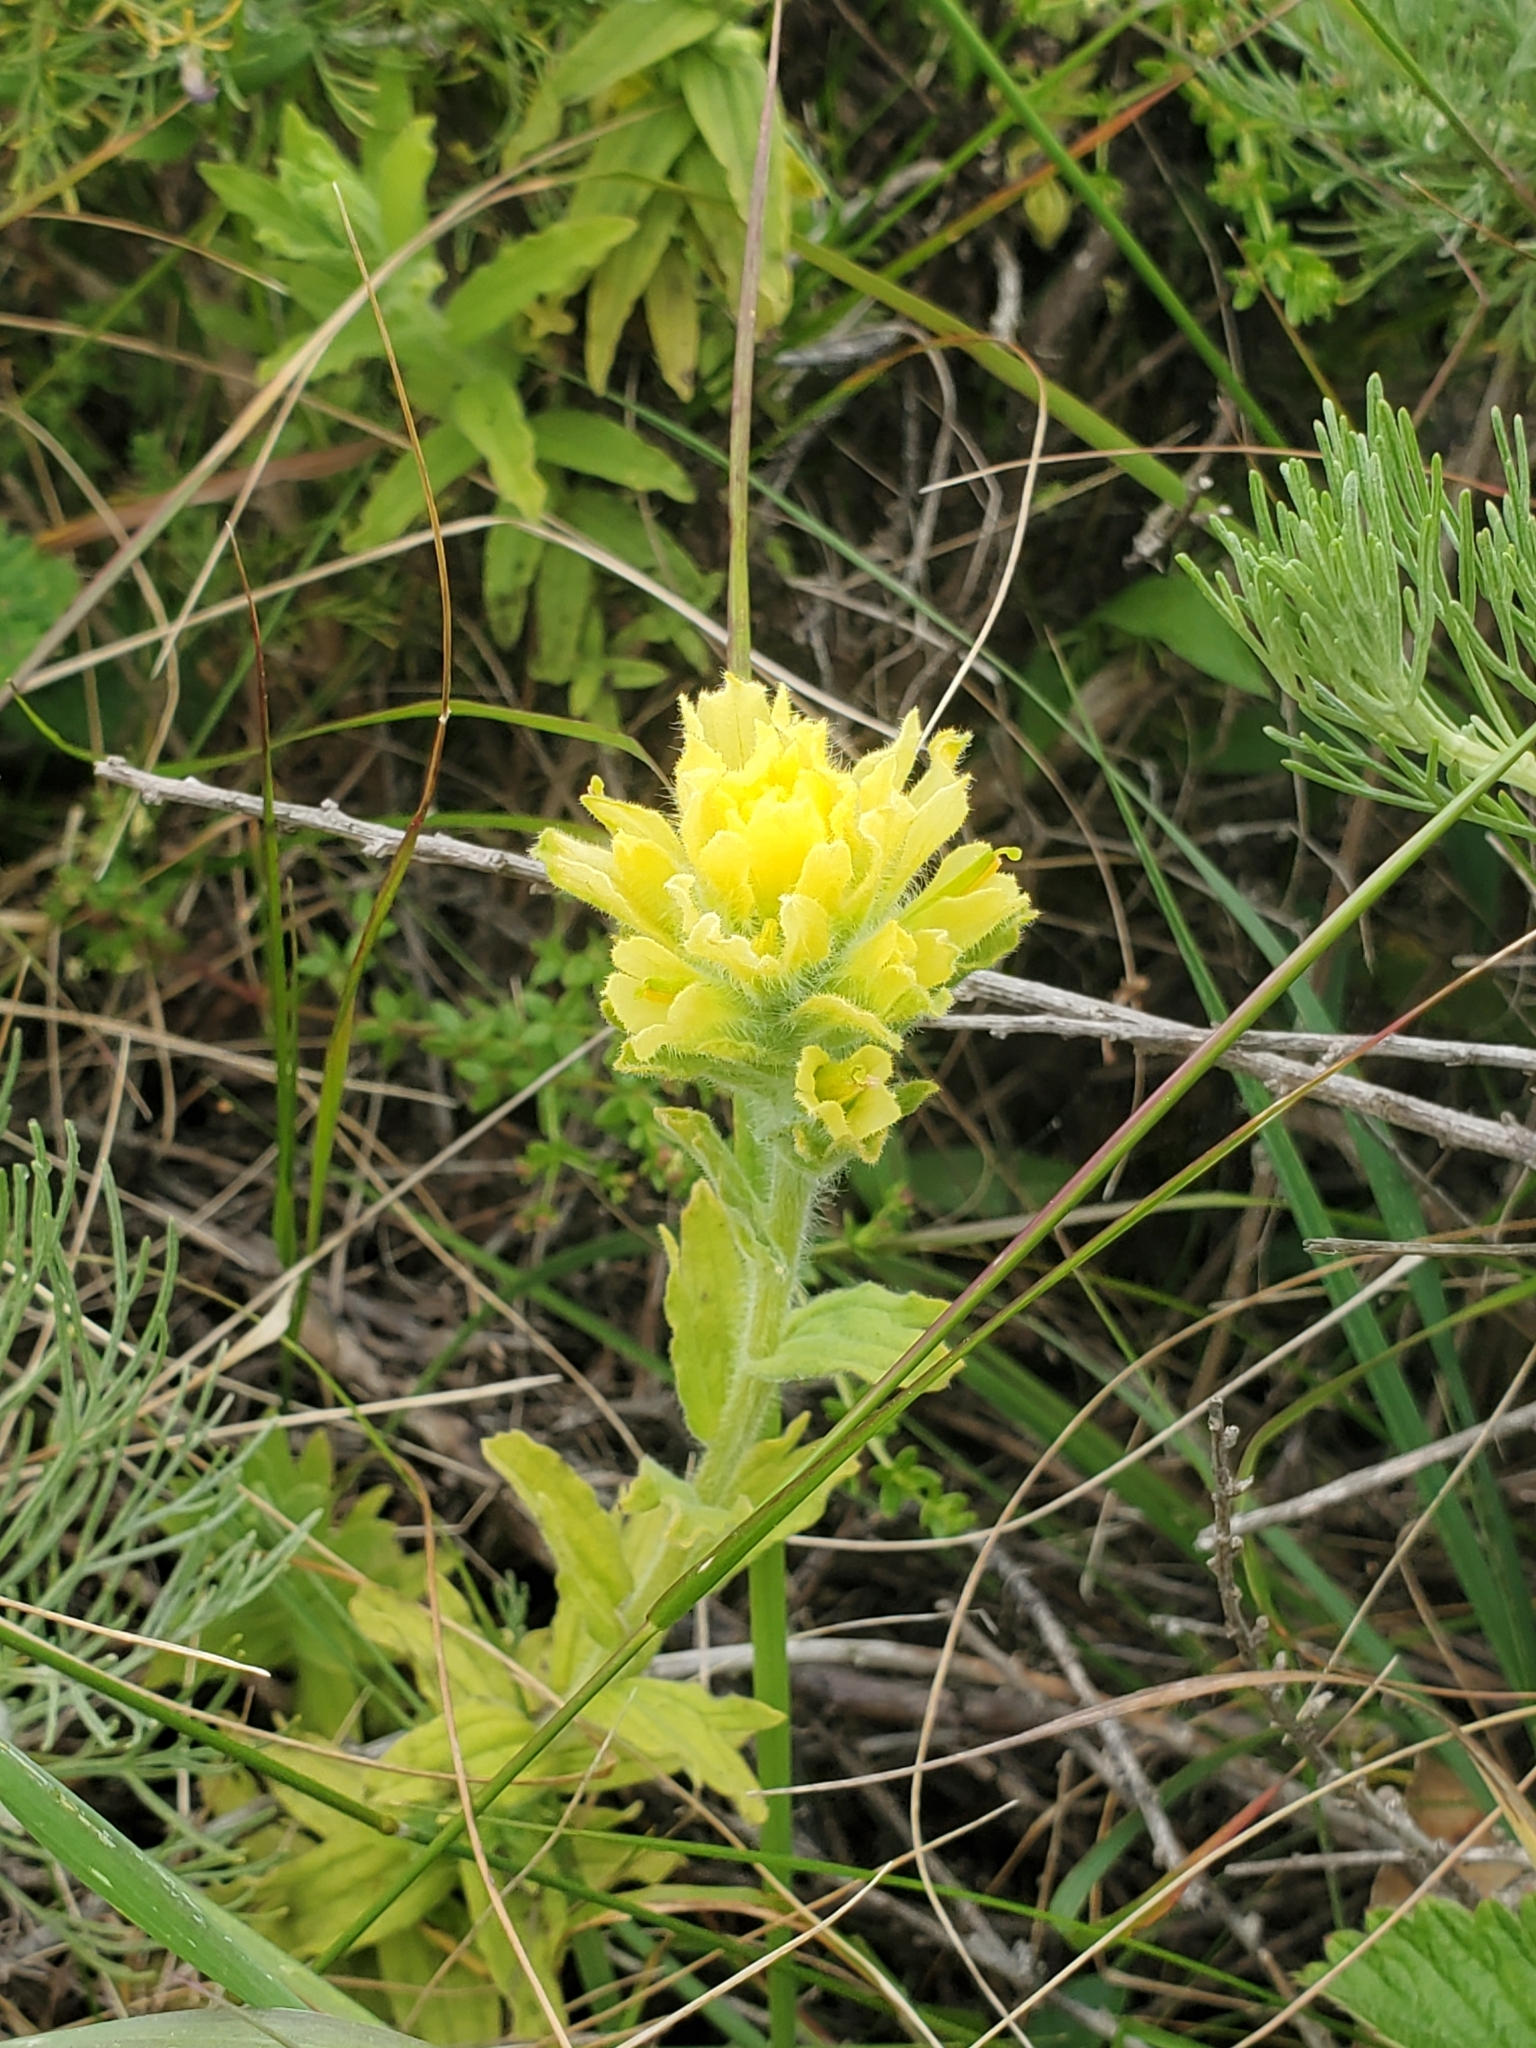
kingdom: Plantae
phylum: Tracheophyta
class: Magnoliopsida
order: Lamiales
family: Orobanchaceae
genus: Castilleja
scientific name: Castilleja wightii
